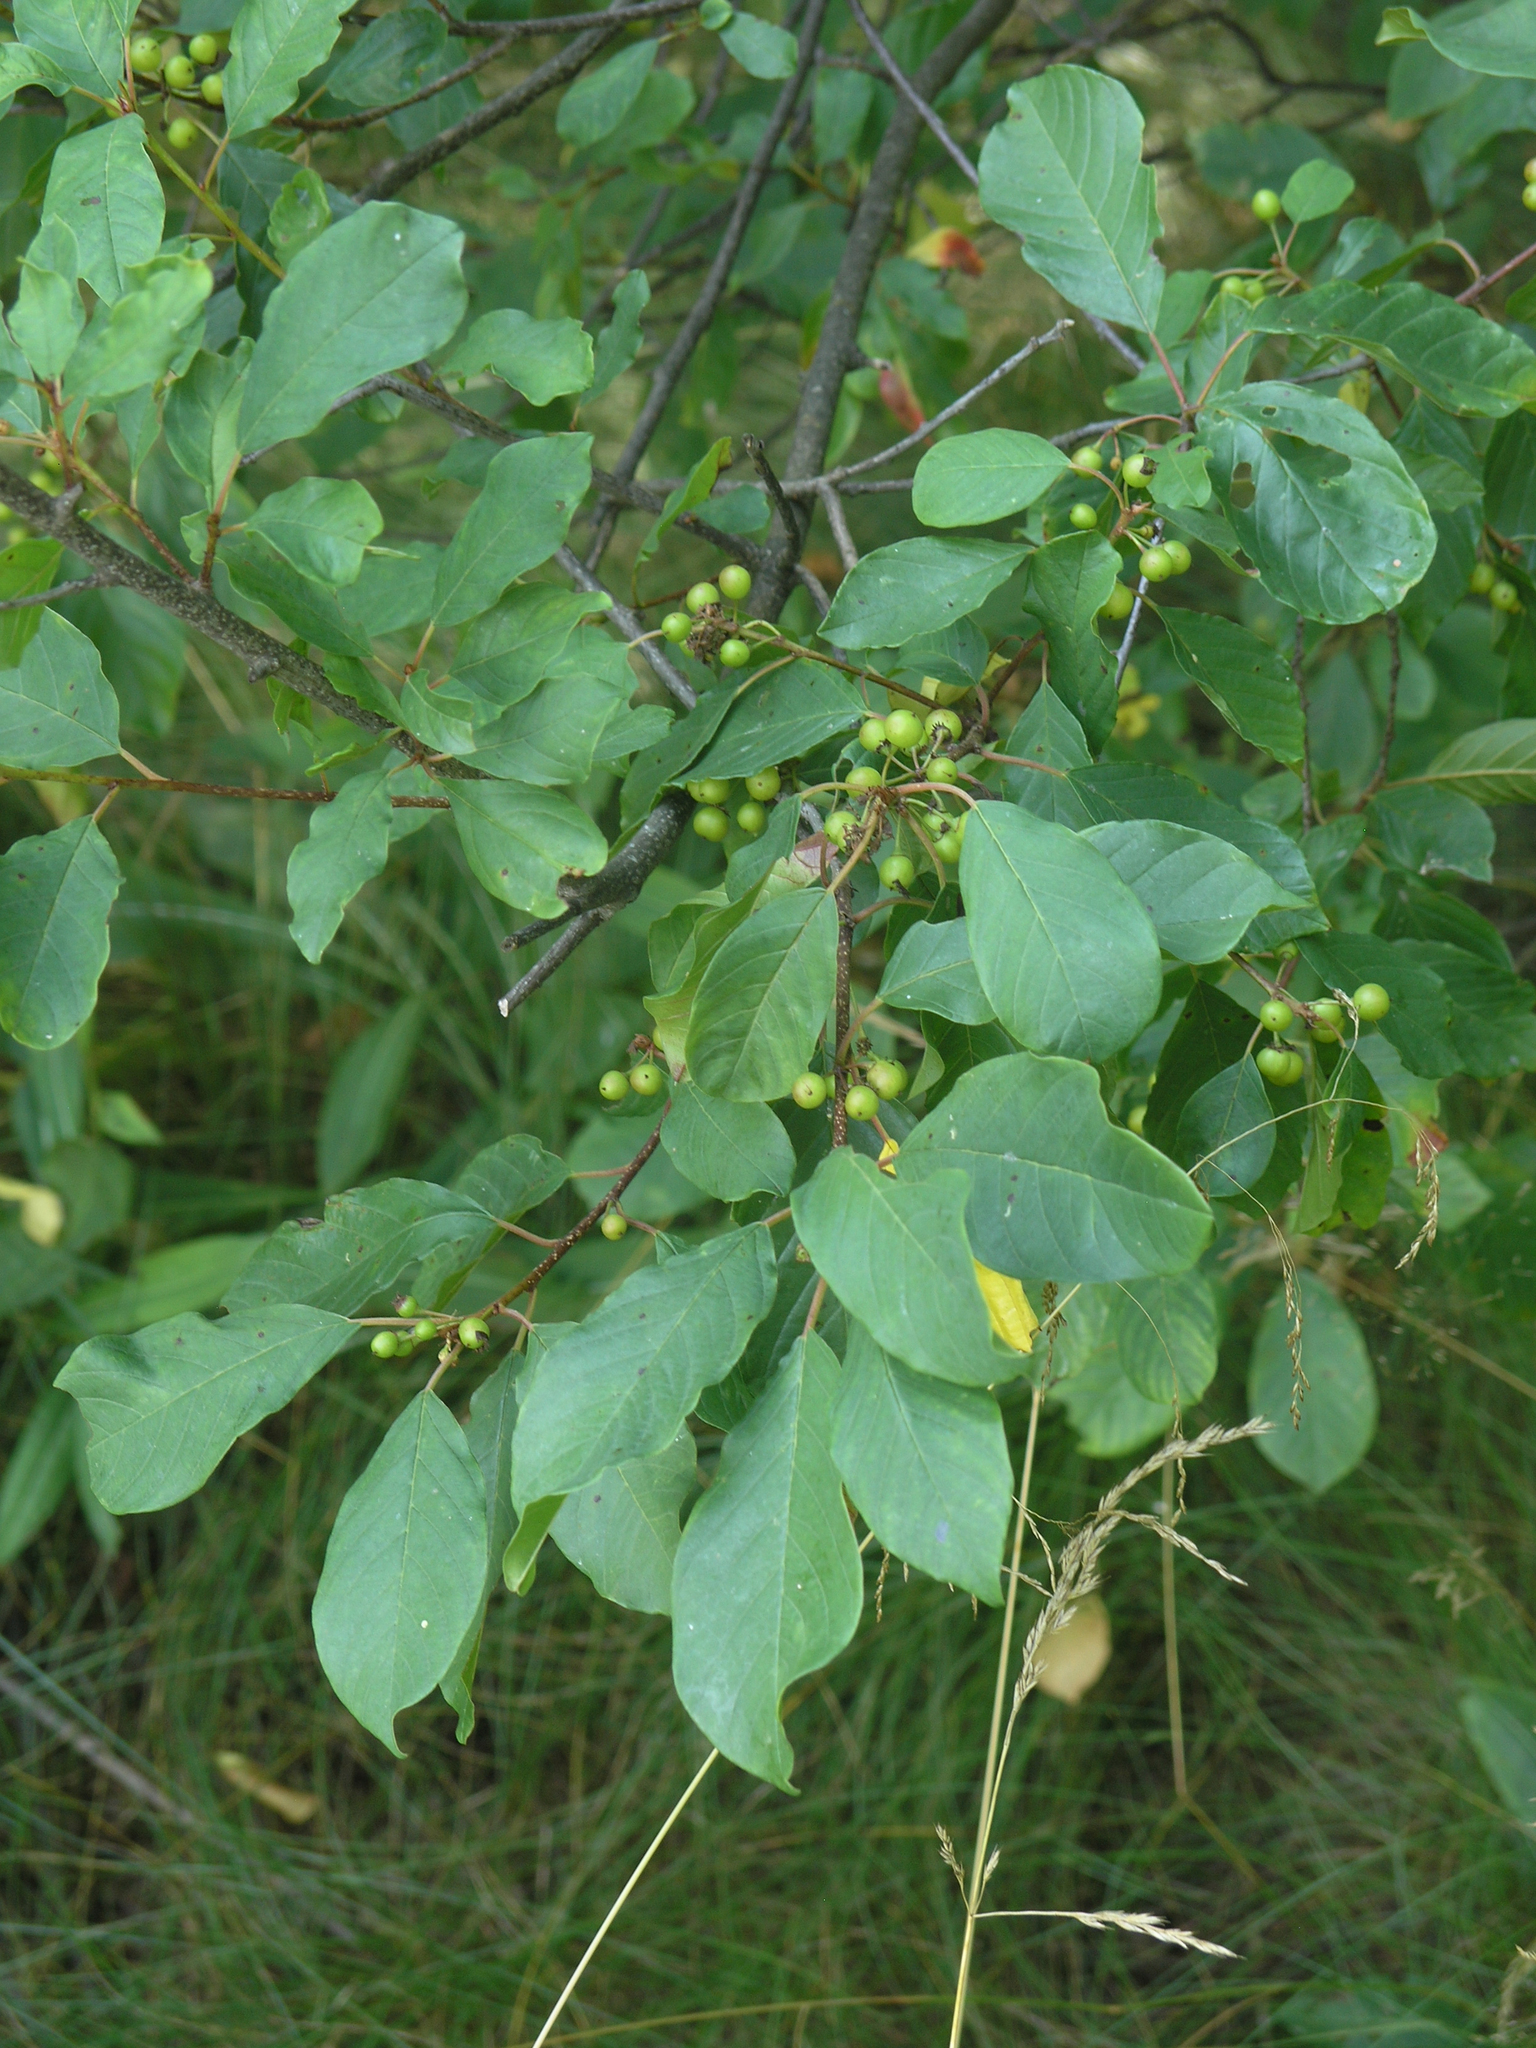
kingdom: Plantae
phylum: Tracheophyta
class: Magnoliopsida
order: Rosales
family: Rhamnaceae
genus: Frangula
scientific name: Frangula alnus
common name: Alder buckthorn
